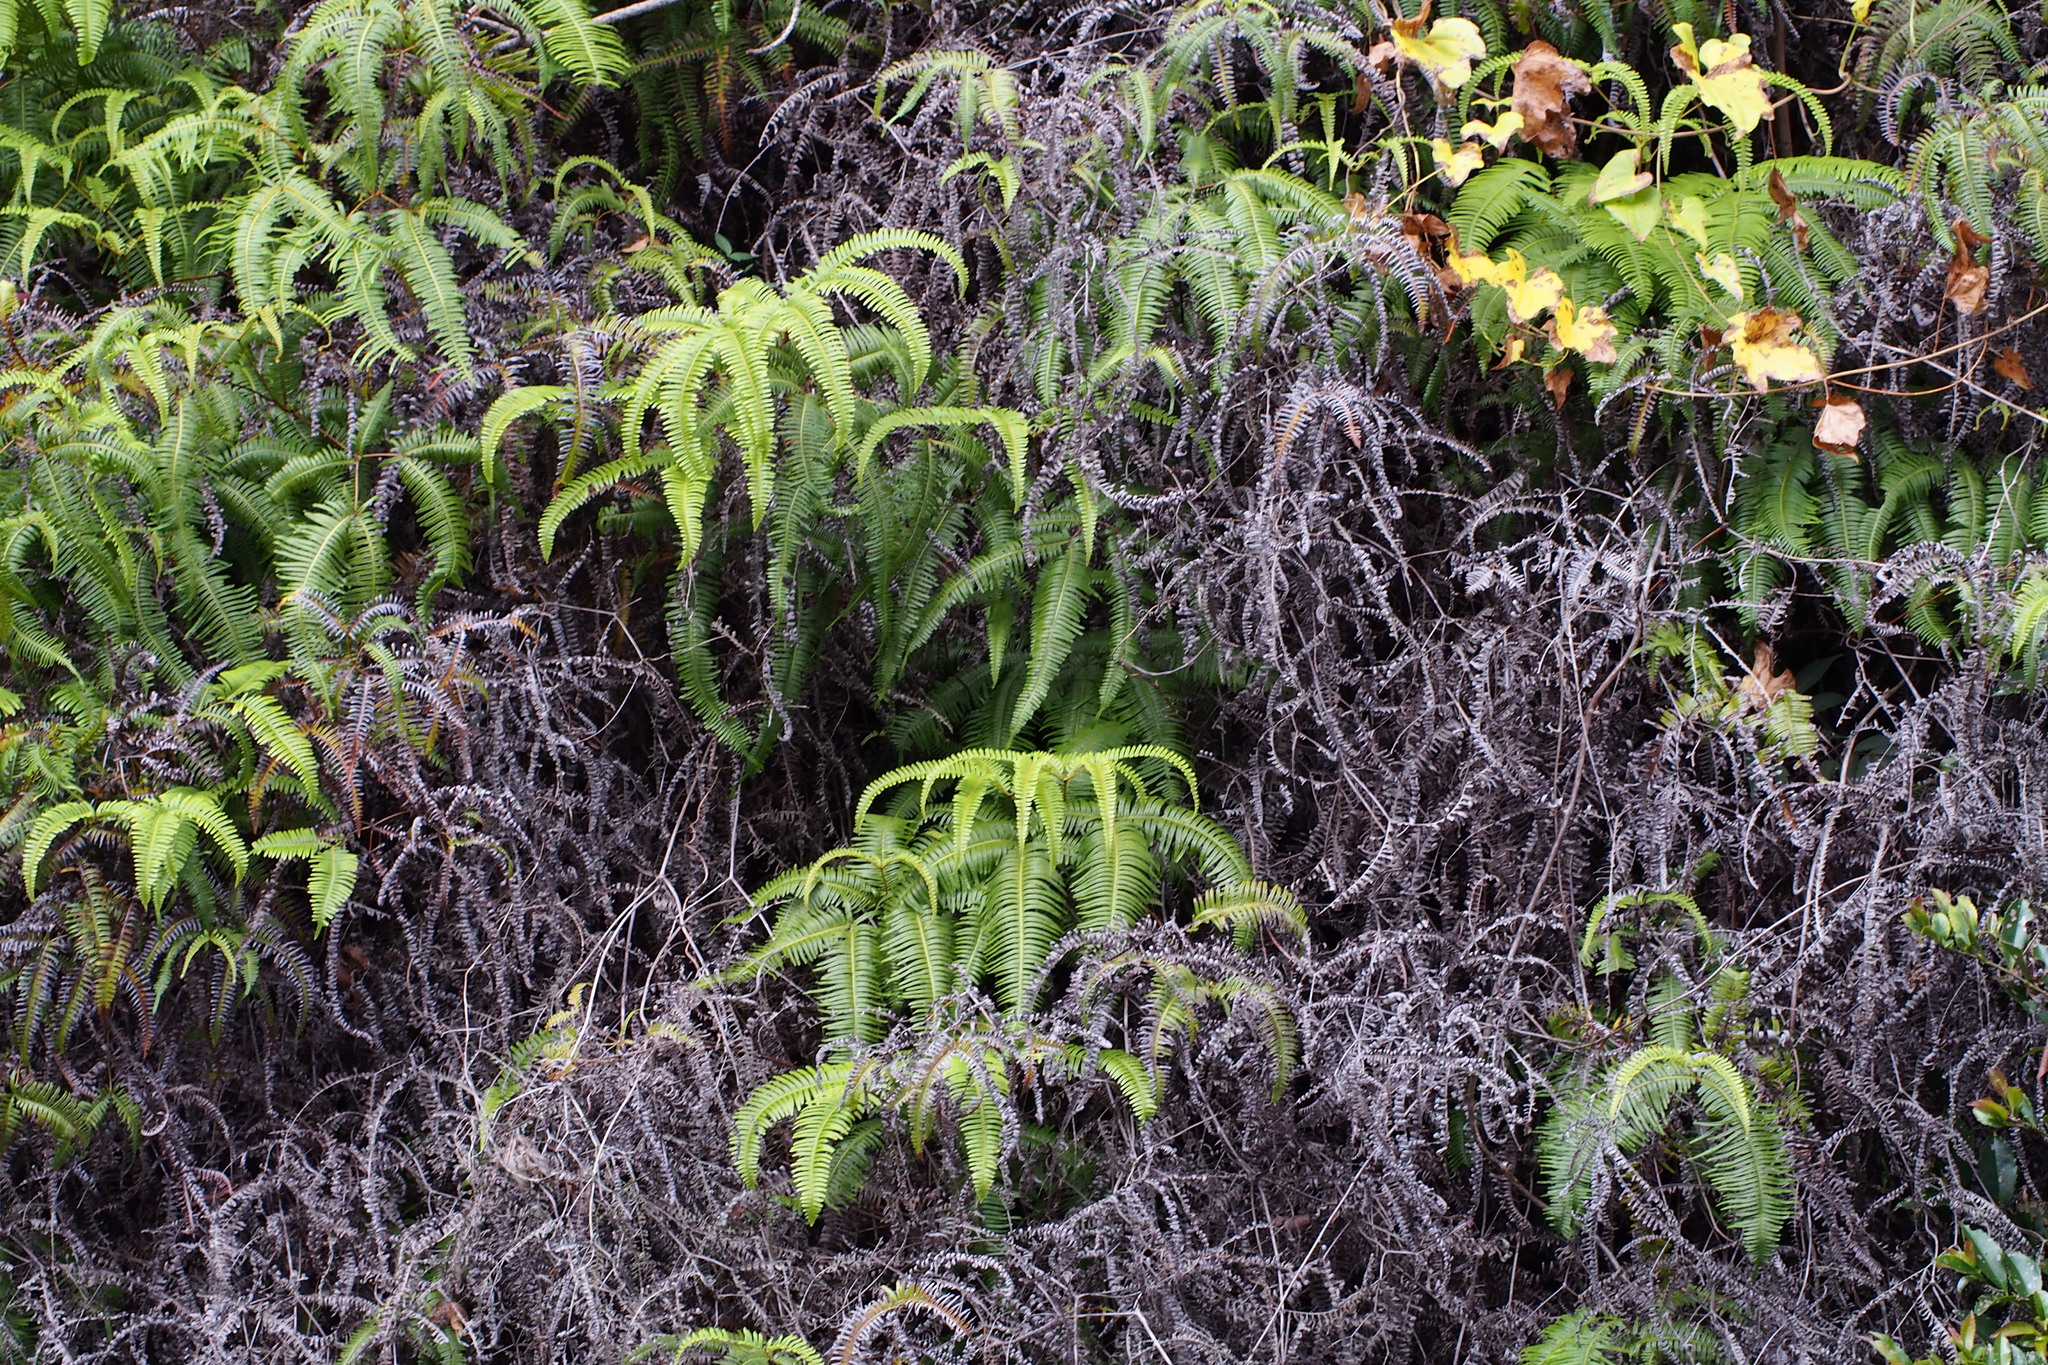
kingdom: Plantae
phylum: Tracheophyta
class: Polypodiopsida
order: Gleicheniales
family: Gleicheniaceae
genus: Dicranopteris
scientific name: Dicranopteris linearis
